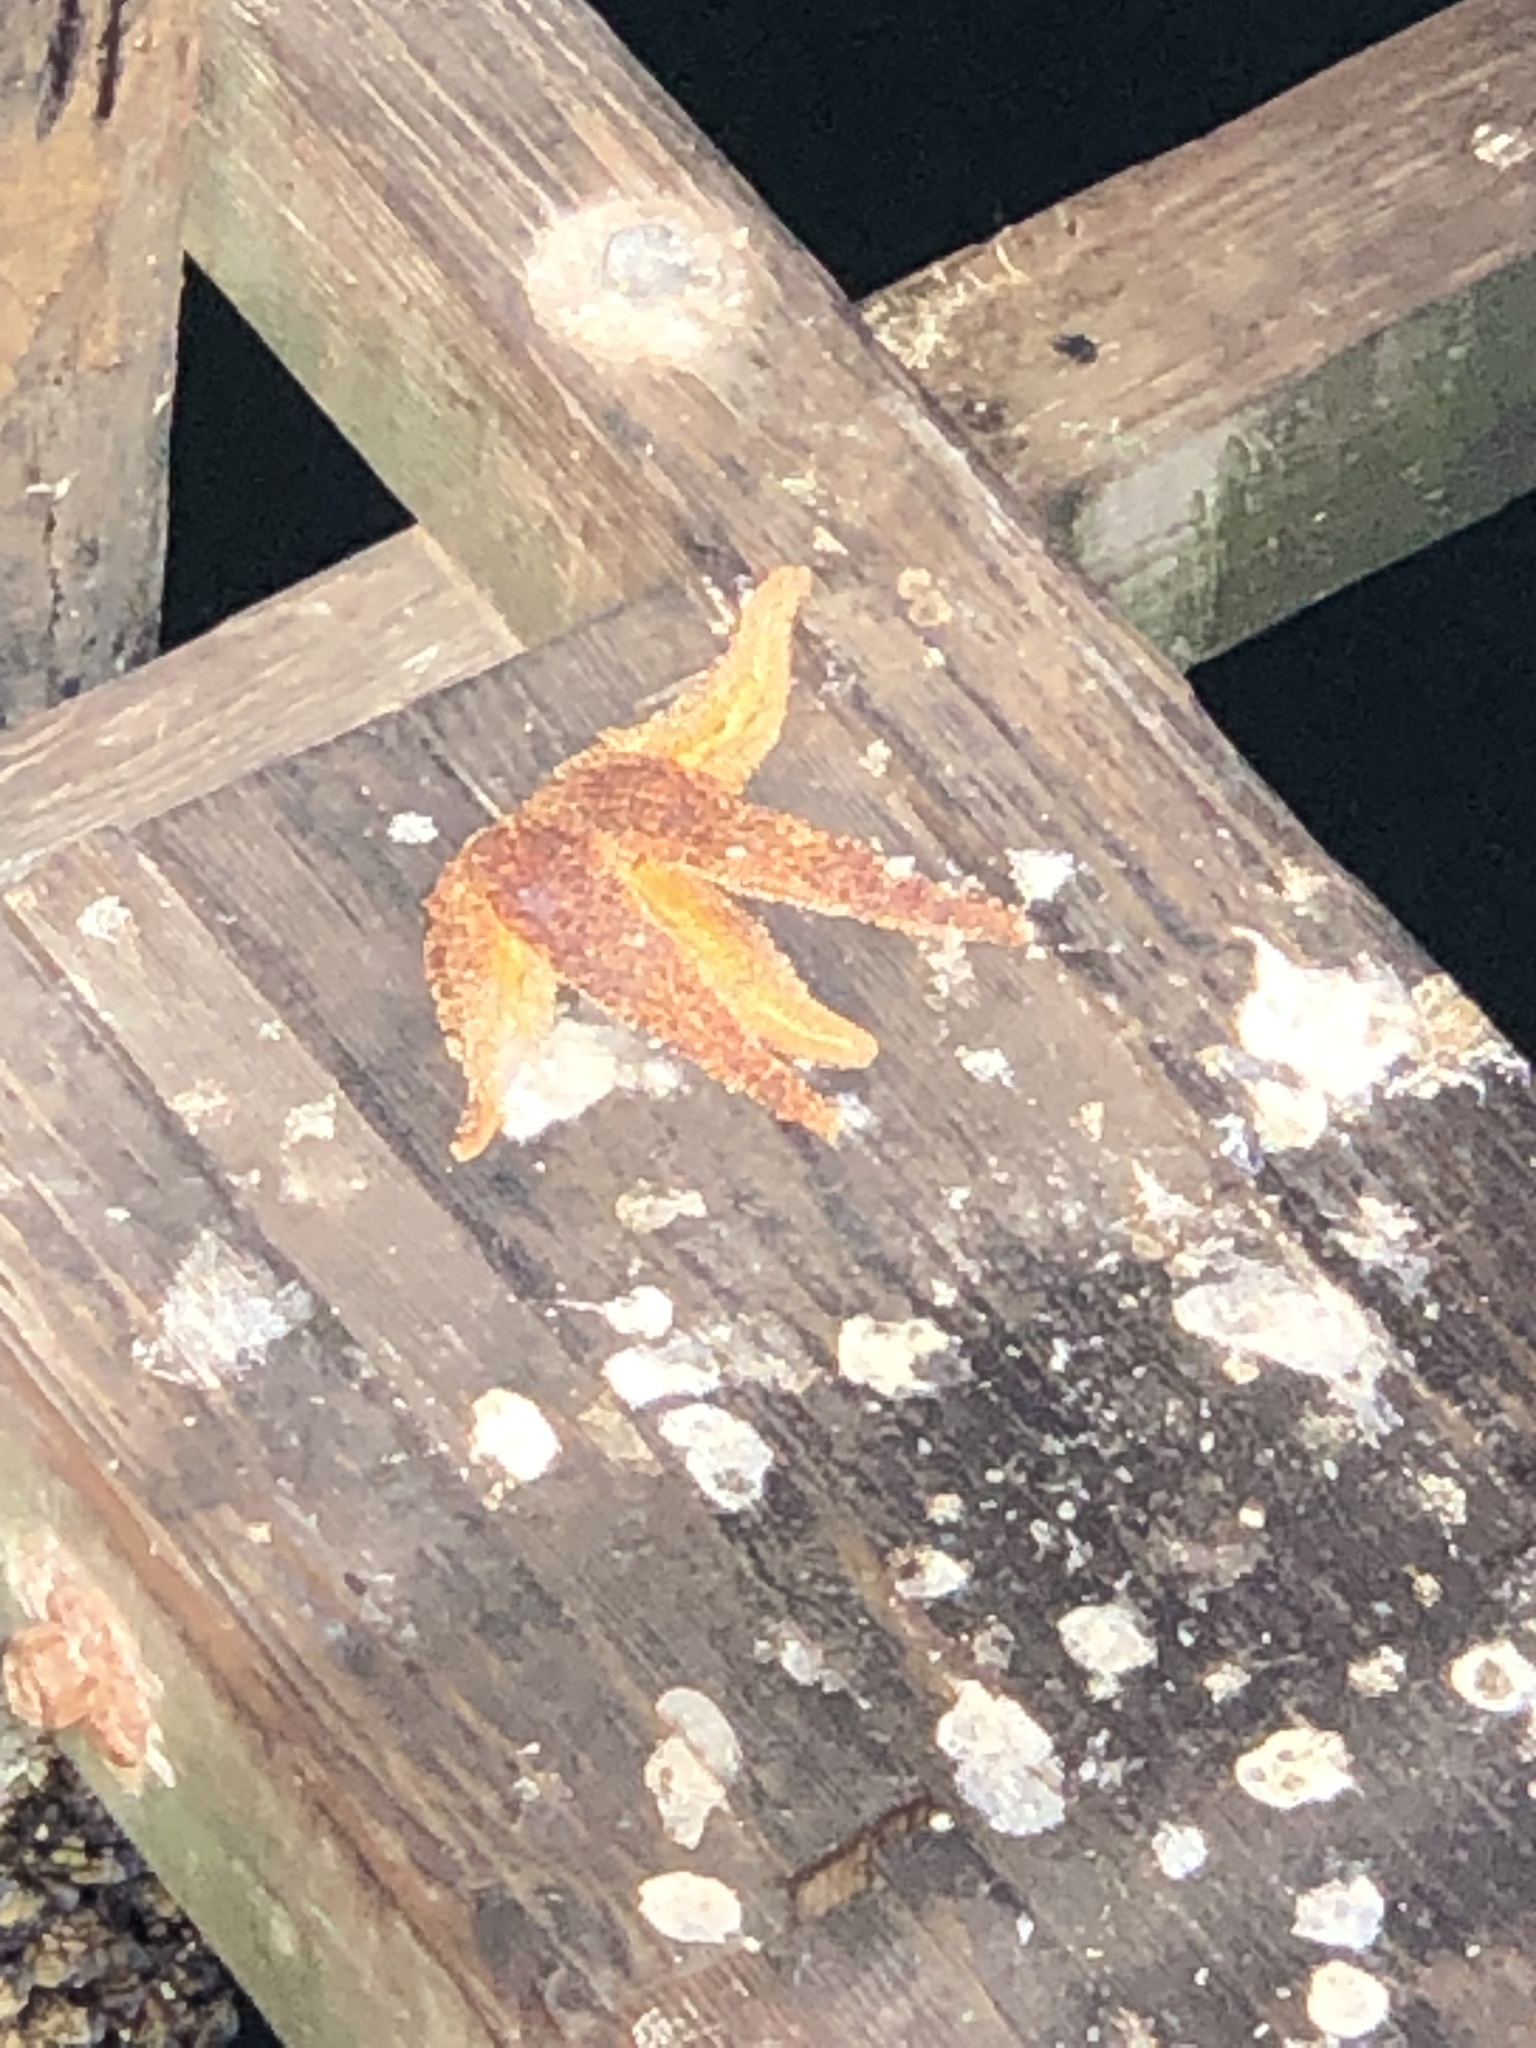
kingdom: Animalia
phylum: Echinodermata
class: Asteroidea
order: Forcipulatida
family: Asteriidae
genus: Pisaster
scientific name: Pisaster ochraceus
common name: Ochre stars
